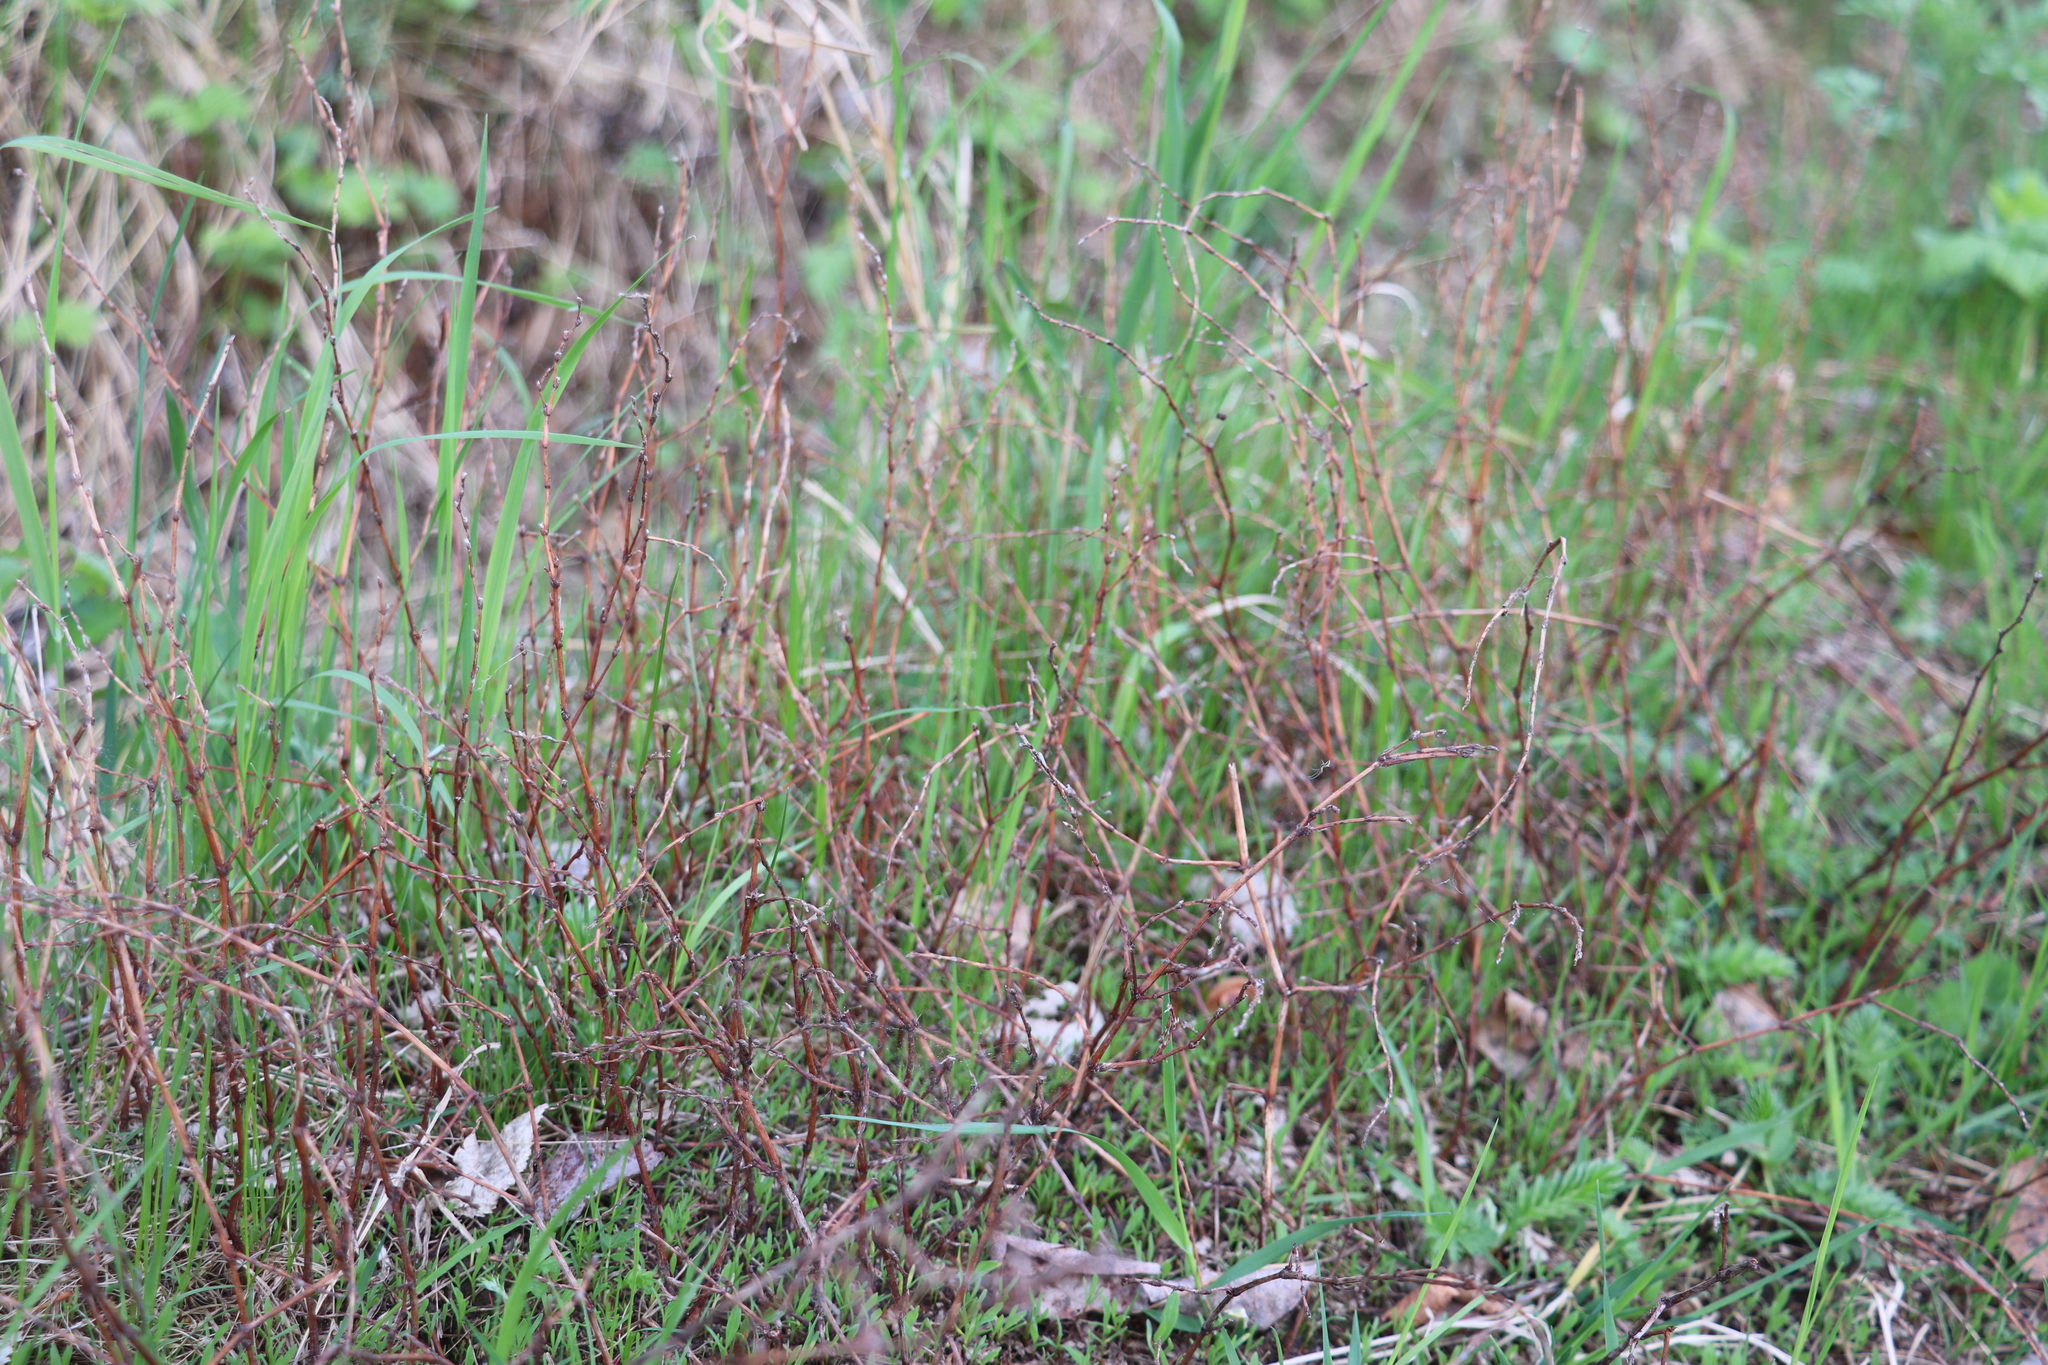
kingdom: Plantae
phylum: Tracheophyta
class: Magnoliopsida
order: Caryophyllales
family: Polygonaceae
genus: Polygonum
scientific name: Polygonum aviculare
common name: Prostrate knotweed
